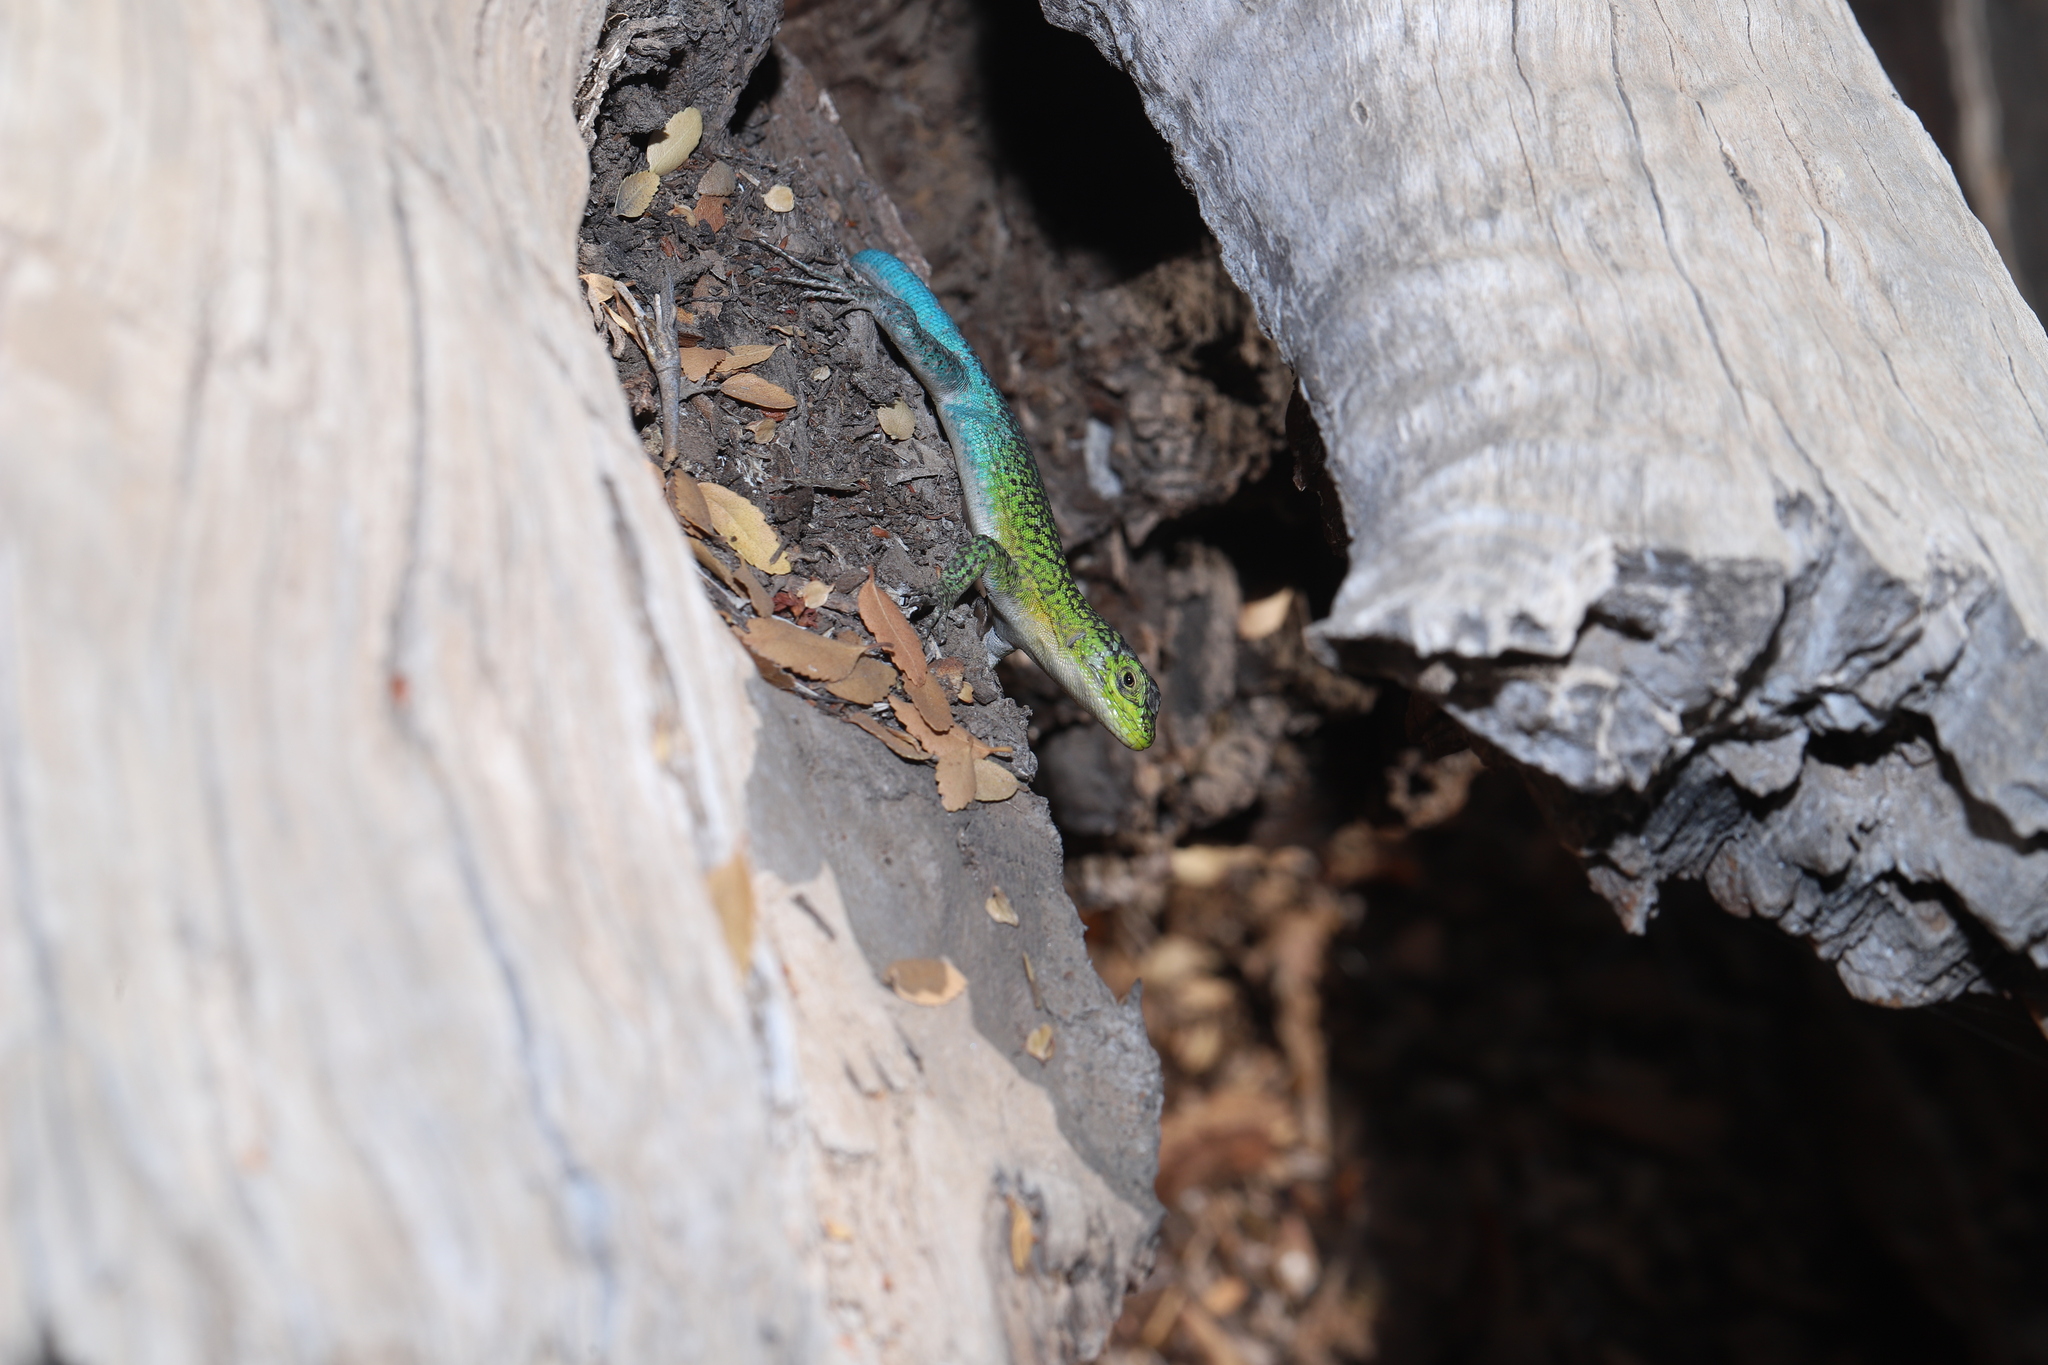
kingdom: Animalia
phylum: Chordata
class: Squamata
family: Liolaemidae
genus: Liolaemus
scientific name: Liolaemus tenuis
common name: Thin tree iguana
